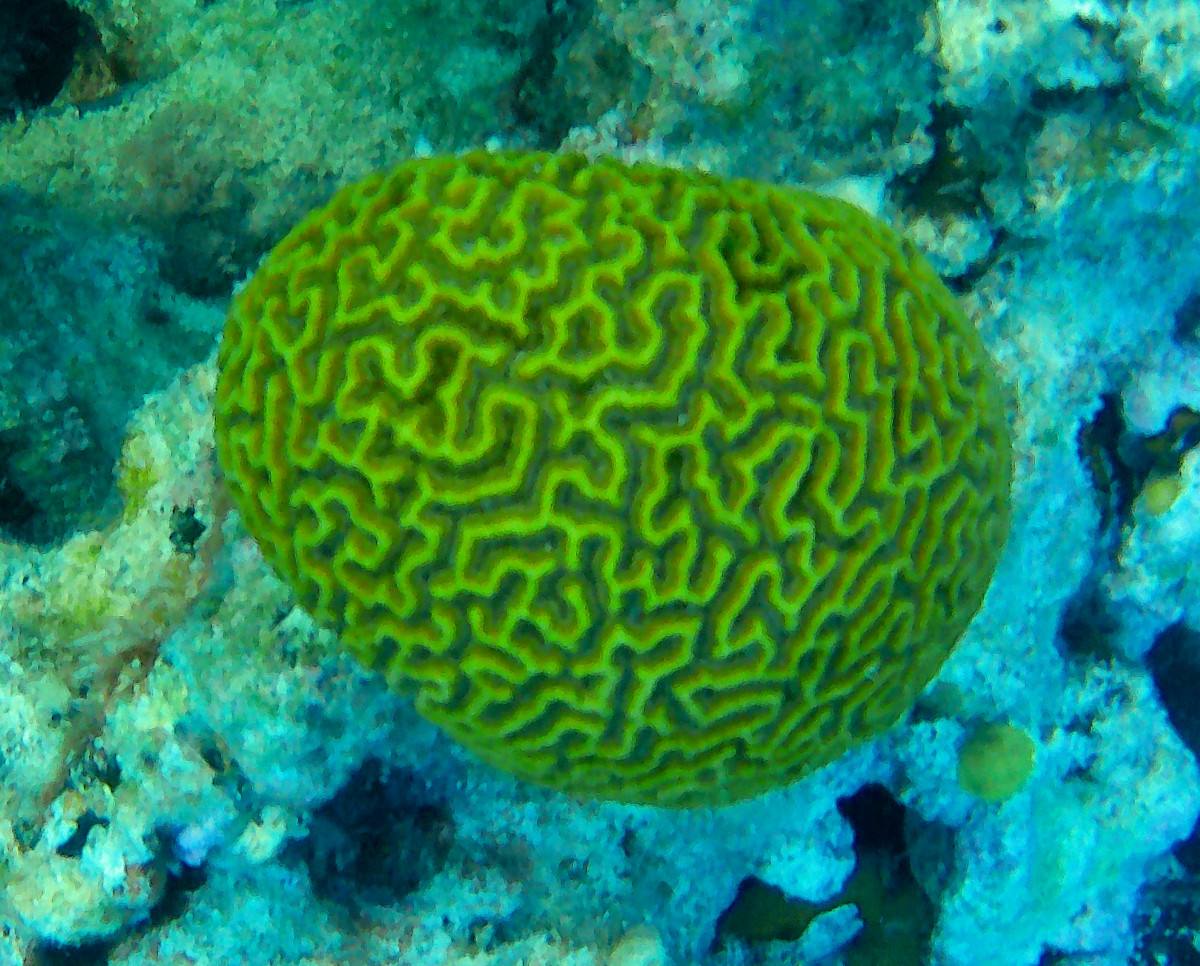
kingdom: Animalia
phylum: Cnidaria
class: Anthozoa
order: Scleractinia
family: Faviidae
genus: Pseudodiploria
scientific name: Pseudodiploria strigosa
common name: Symmetrical brain coral
